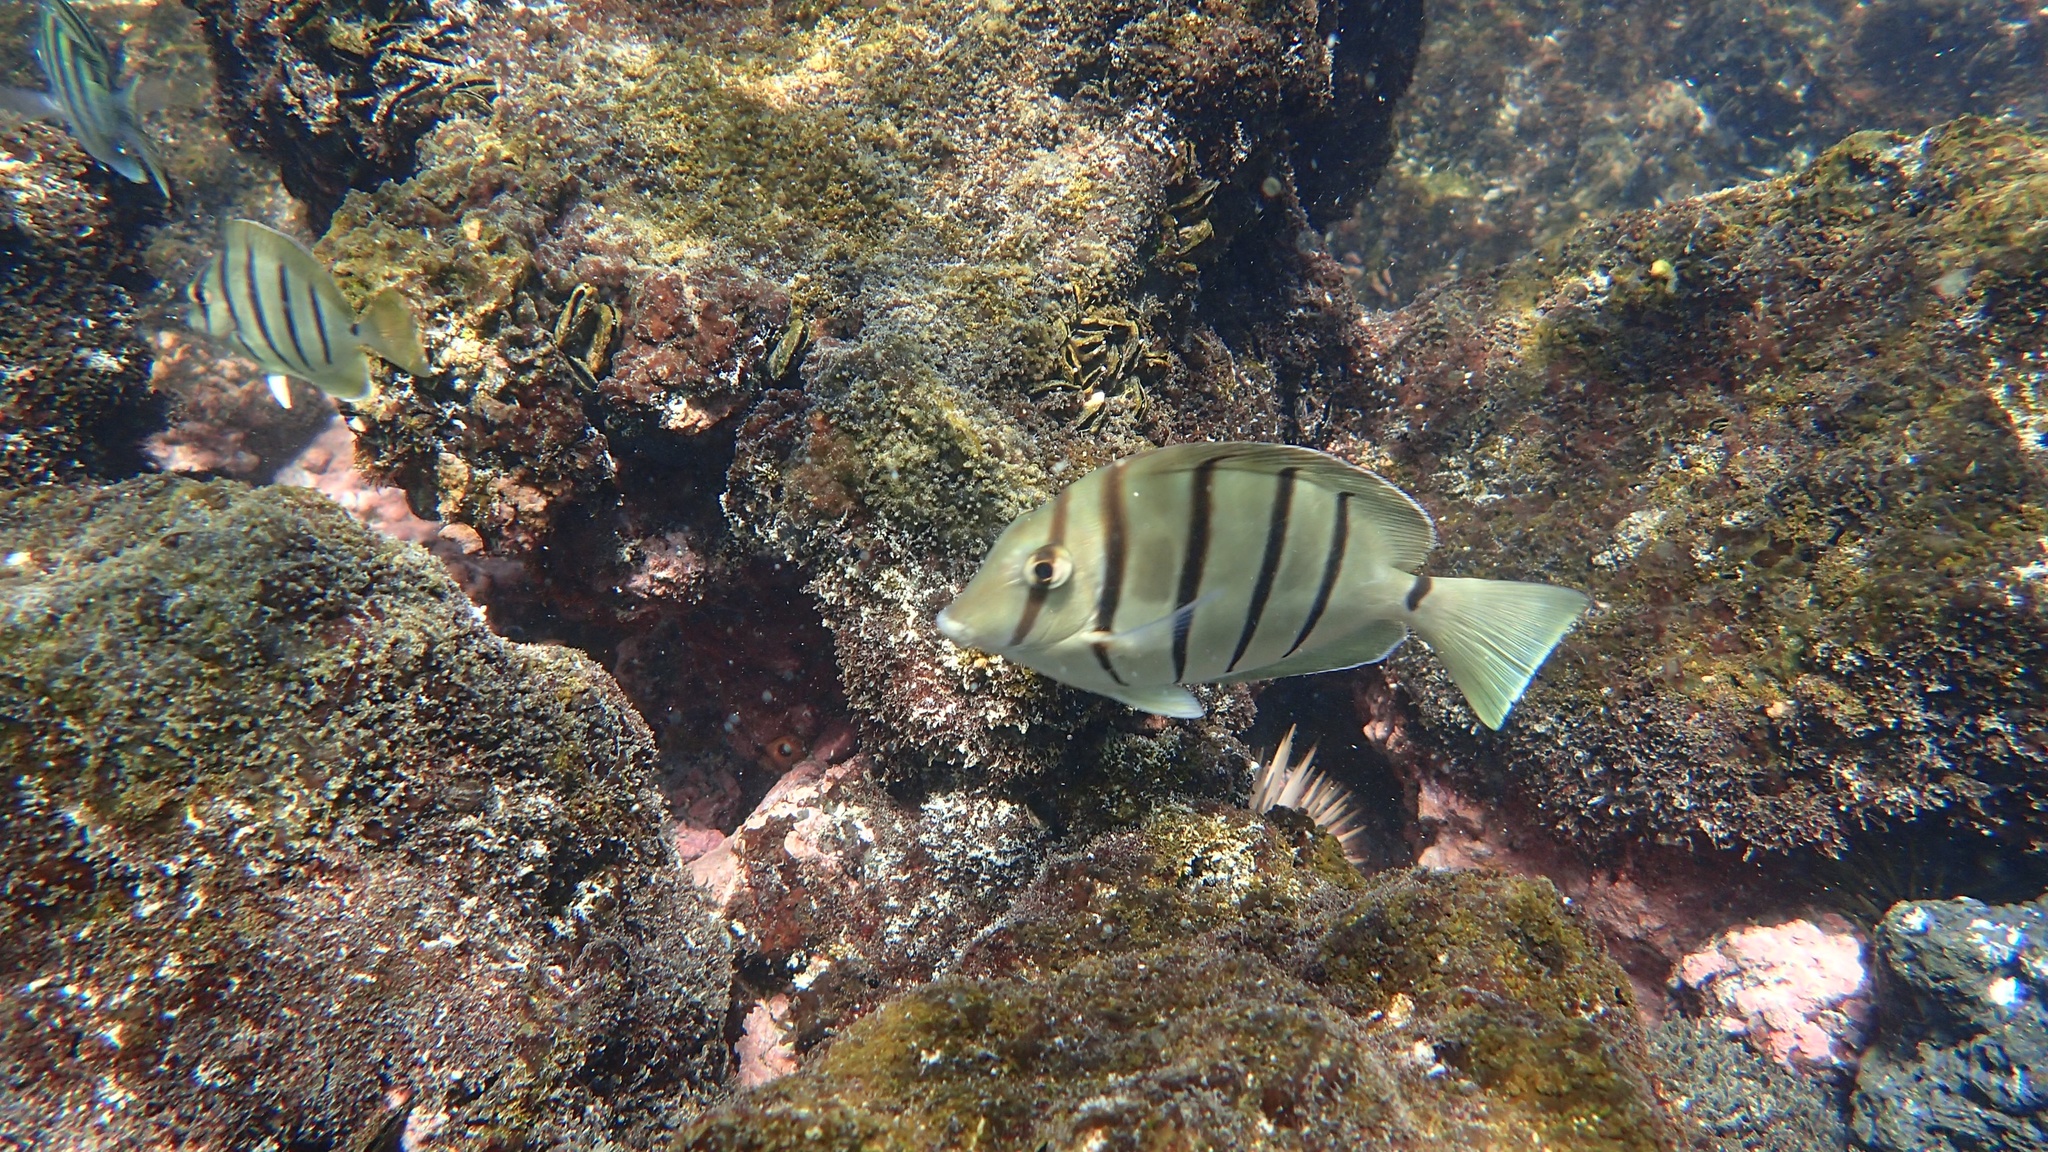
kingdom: Animalia
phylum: Chordata
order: Perciformes
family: Acanthuridae
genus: Acanthurus
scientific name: Acanthurus triostegus
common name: Convict surgeonfish
